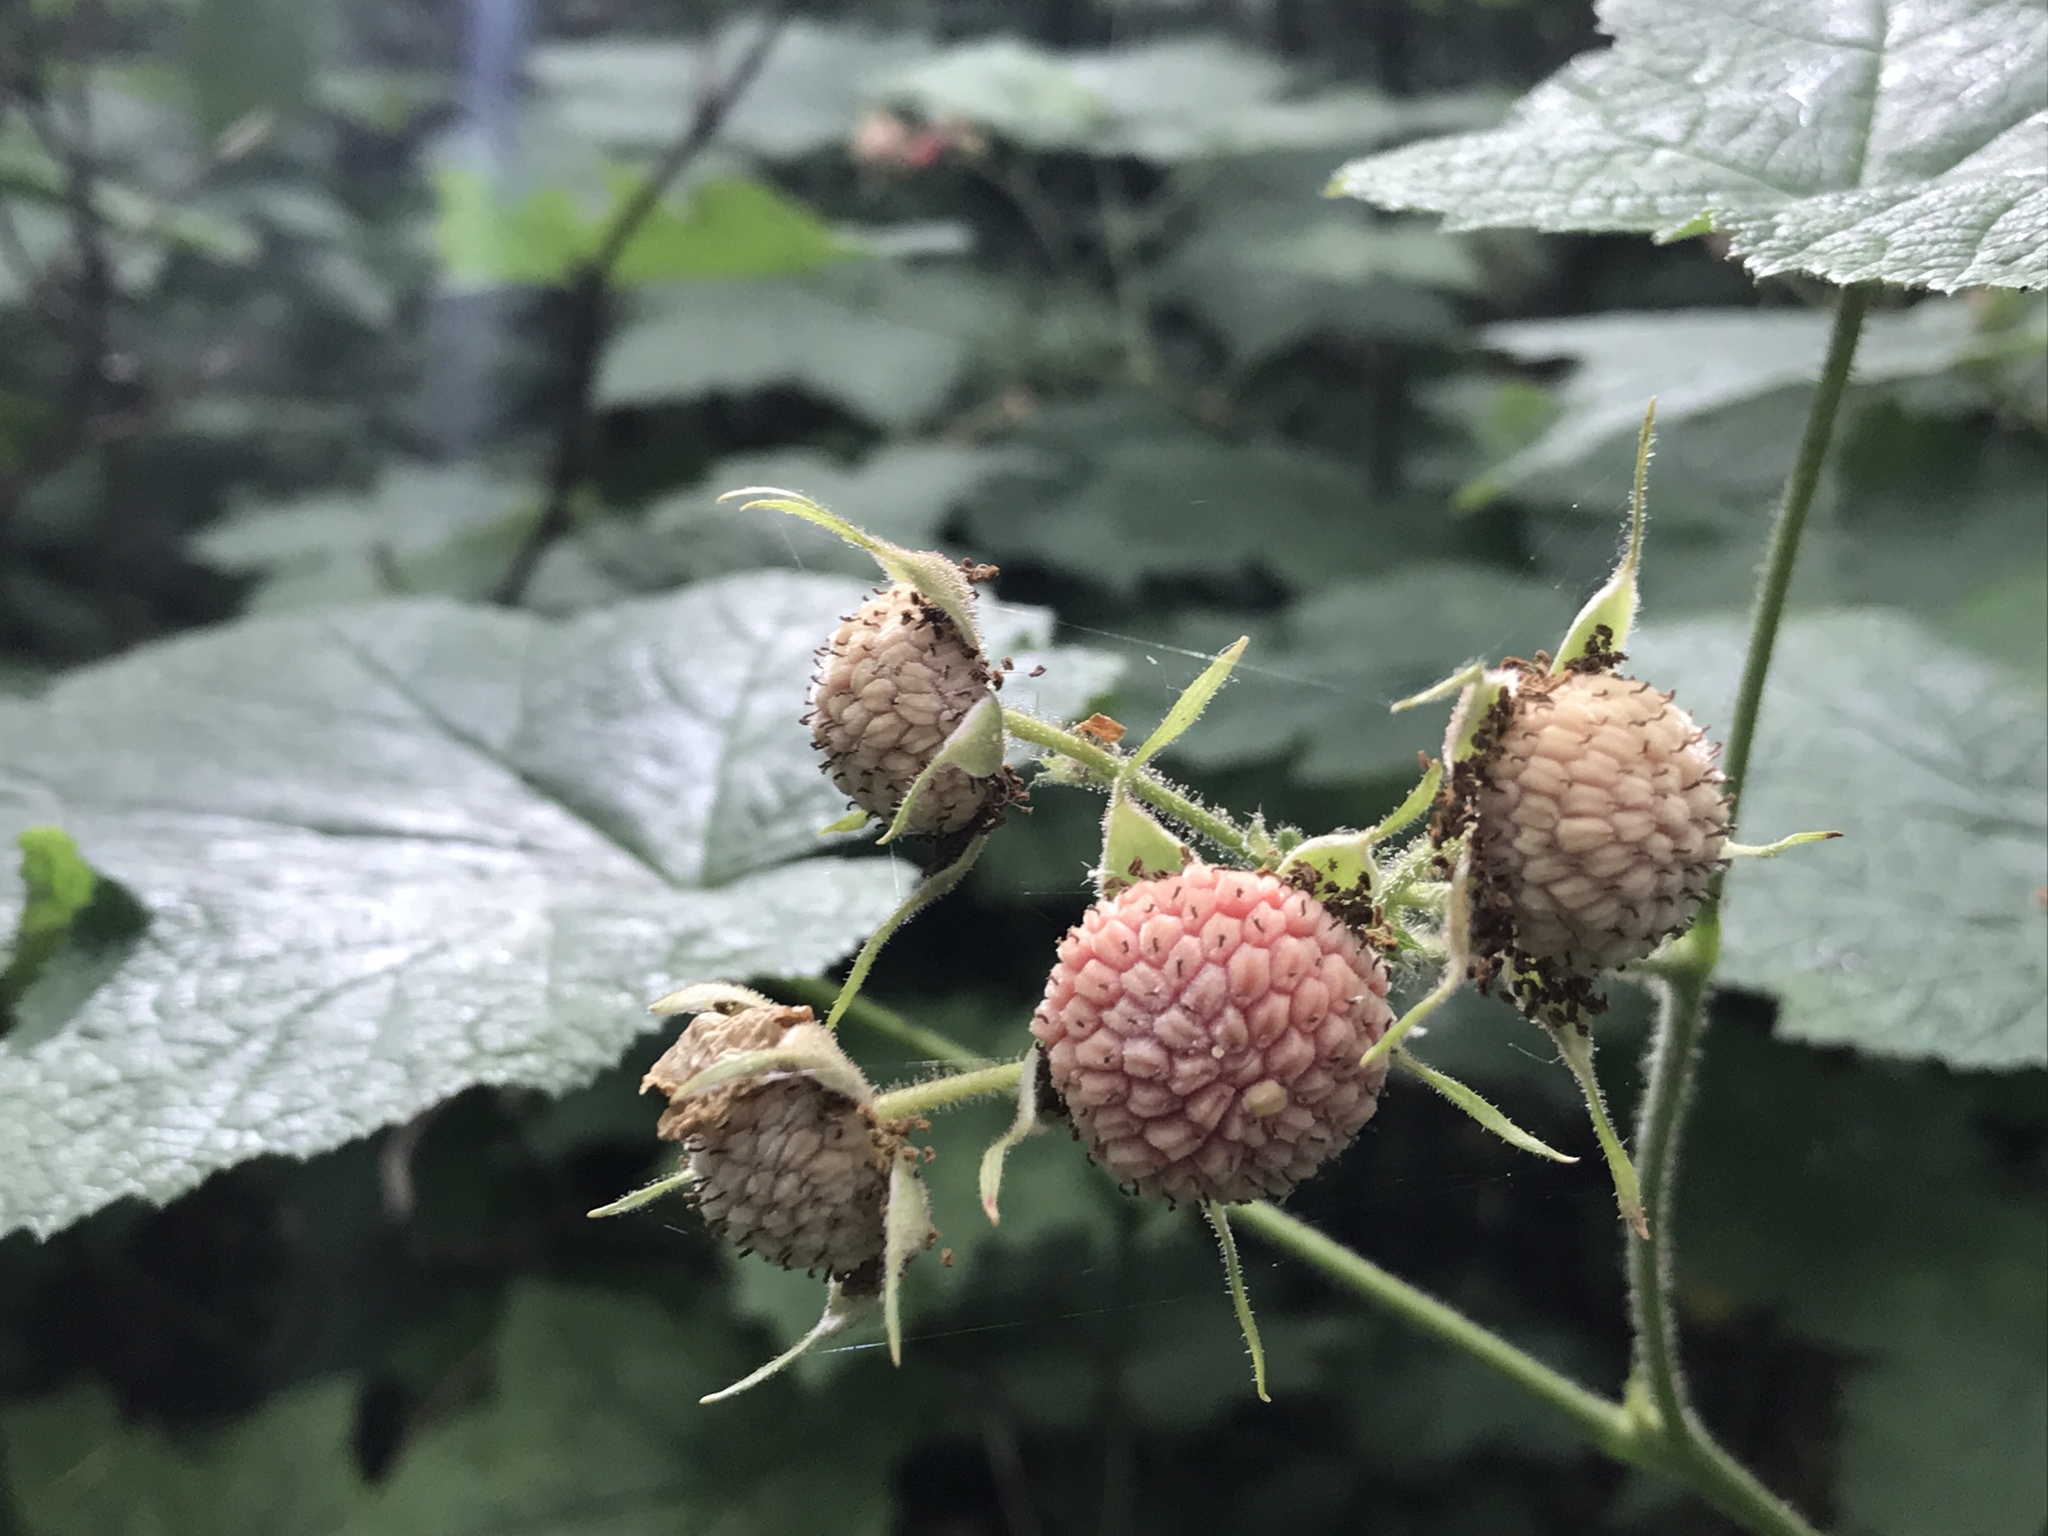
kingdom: Plantae
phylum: Tracheophyta
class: Magnoliopsida
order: Rosales
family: Rosaceae
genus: Rubus
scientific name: Rubus parviflorus
